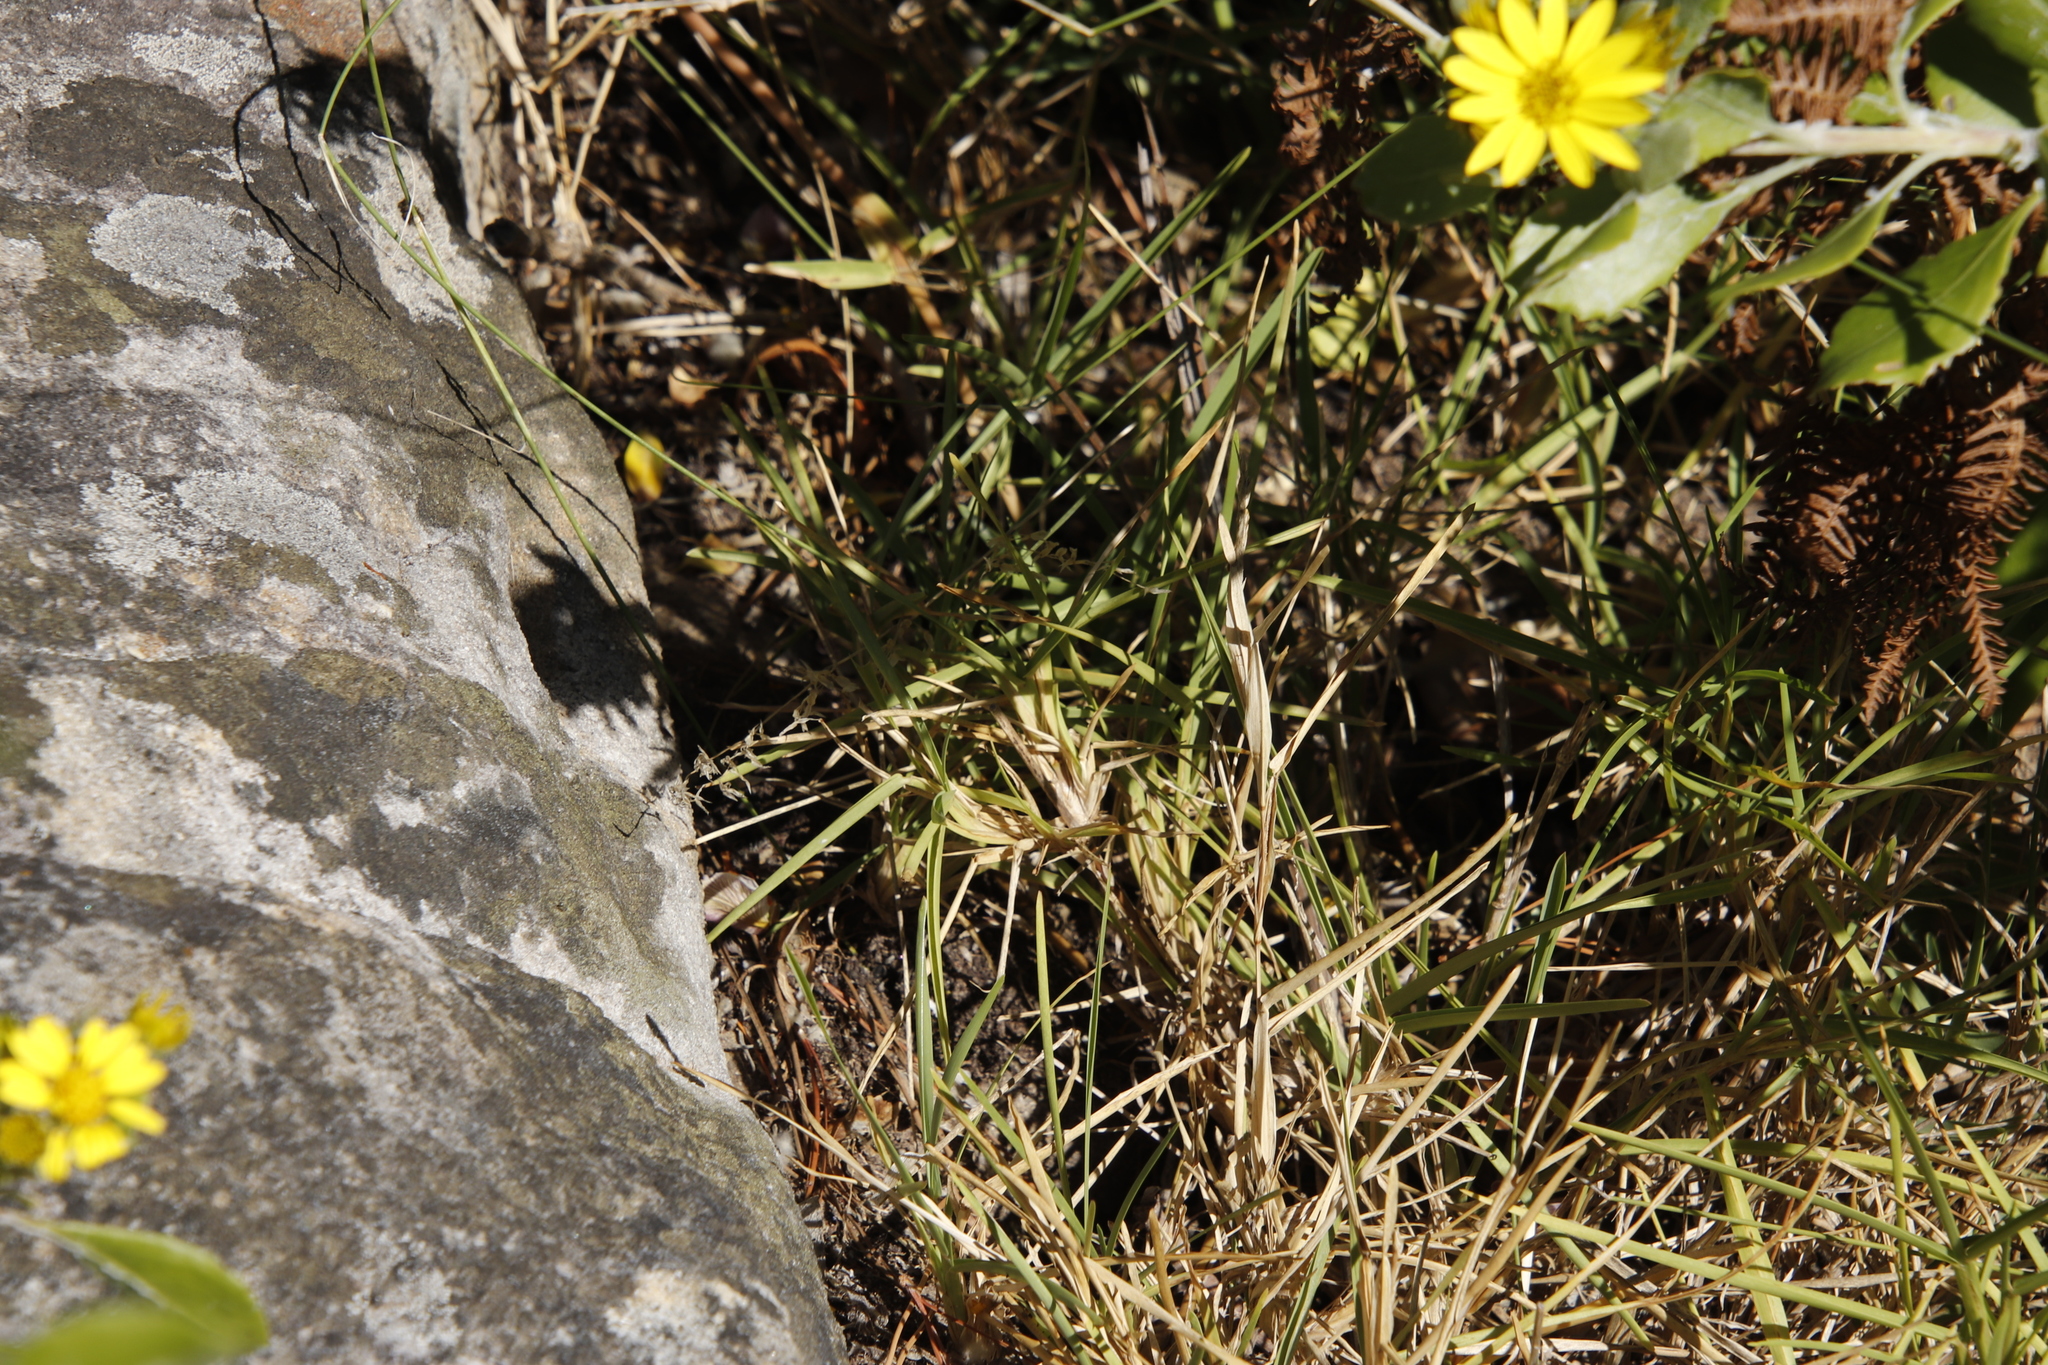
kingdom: Plantae
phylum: Tracheophyta
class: Liliopsida
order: Poales
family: Poaceae
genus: Stenotaphrum
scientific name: Stenotaphrum secundatum
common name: St. augustine grass
